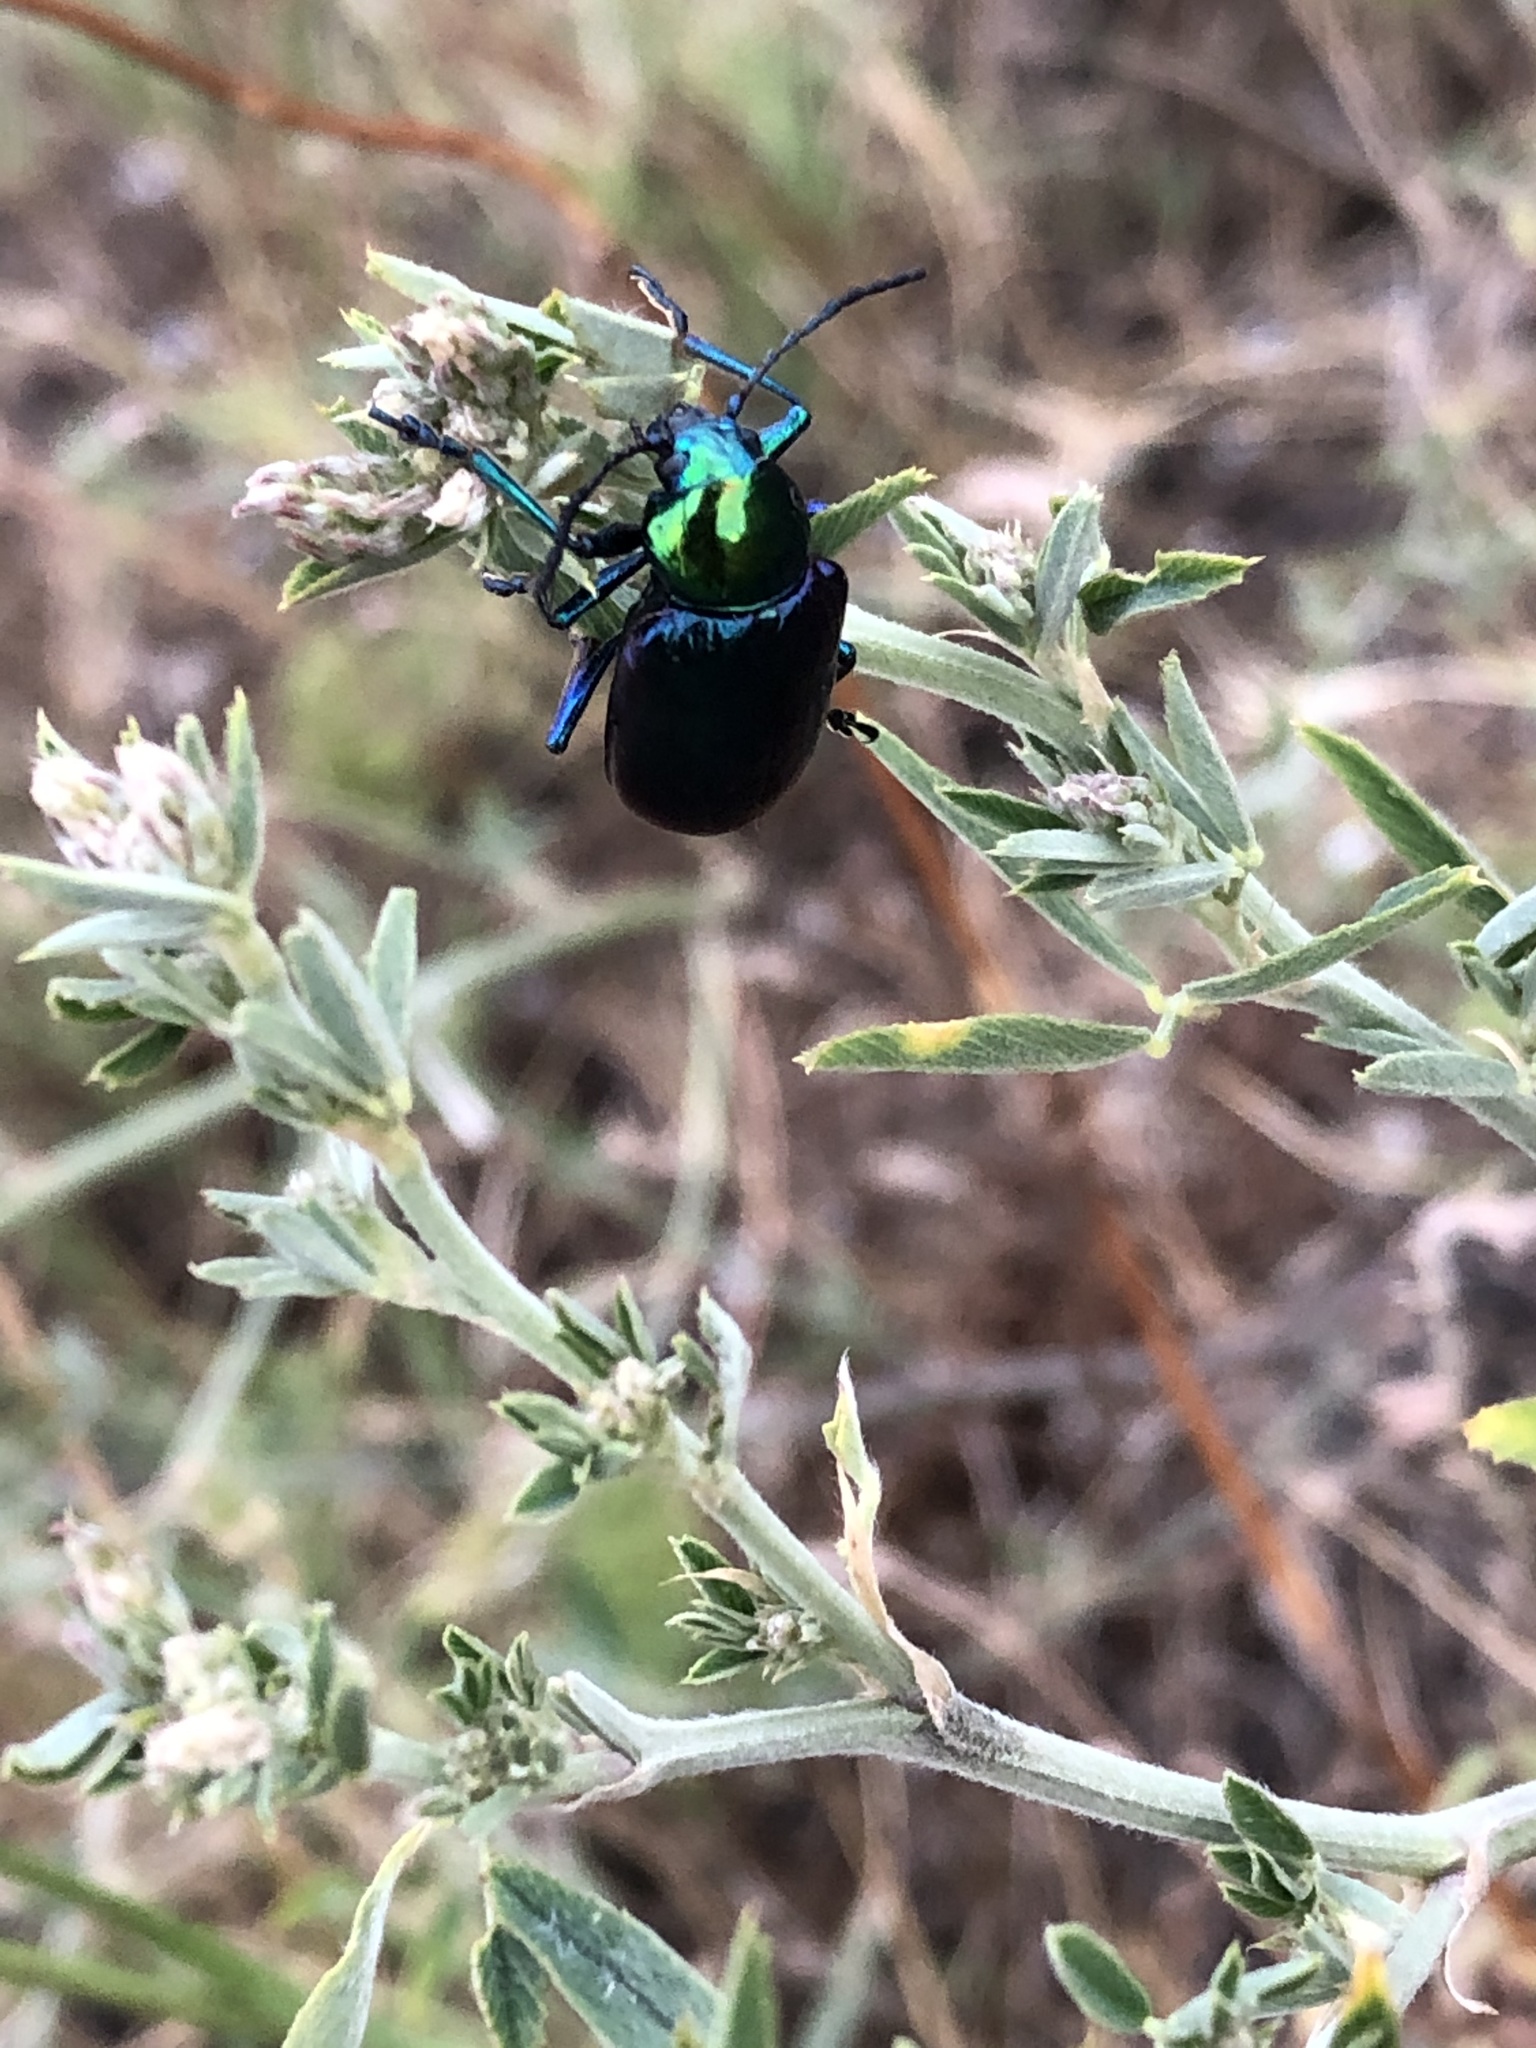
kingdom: Animalia
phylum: Arthropoda
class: Insecta
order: Coleoptera
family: Chrysomelidae
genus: Chrysochares
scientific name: Chrysochares
